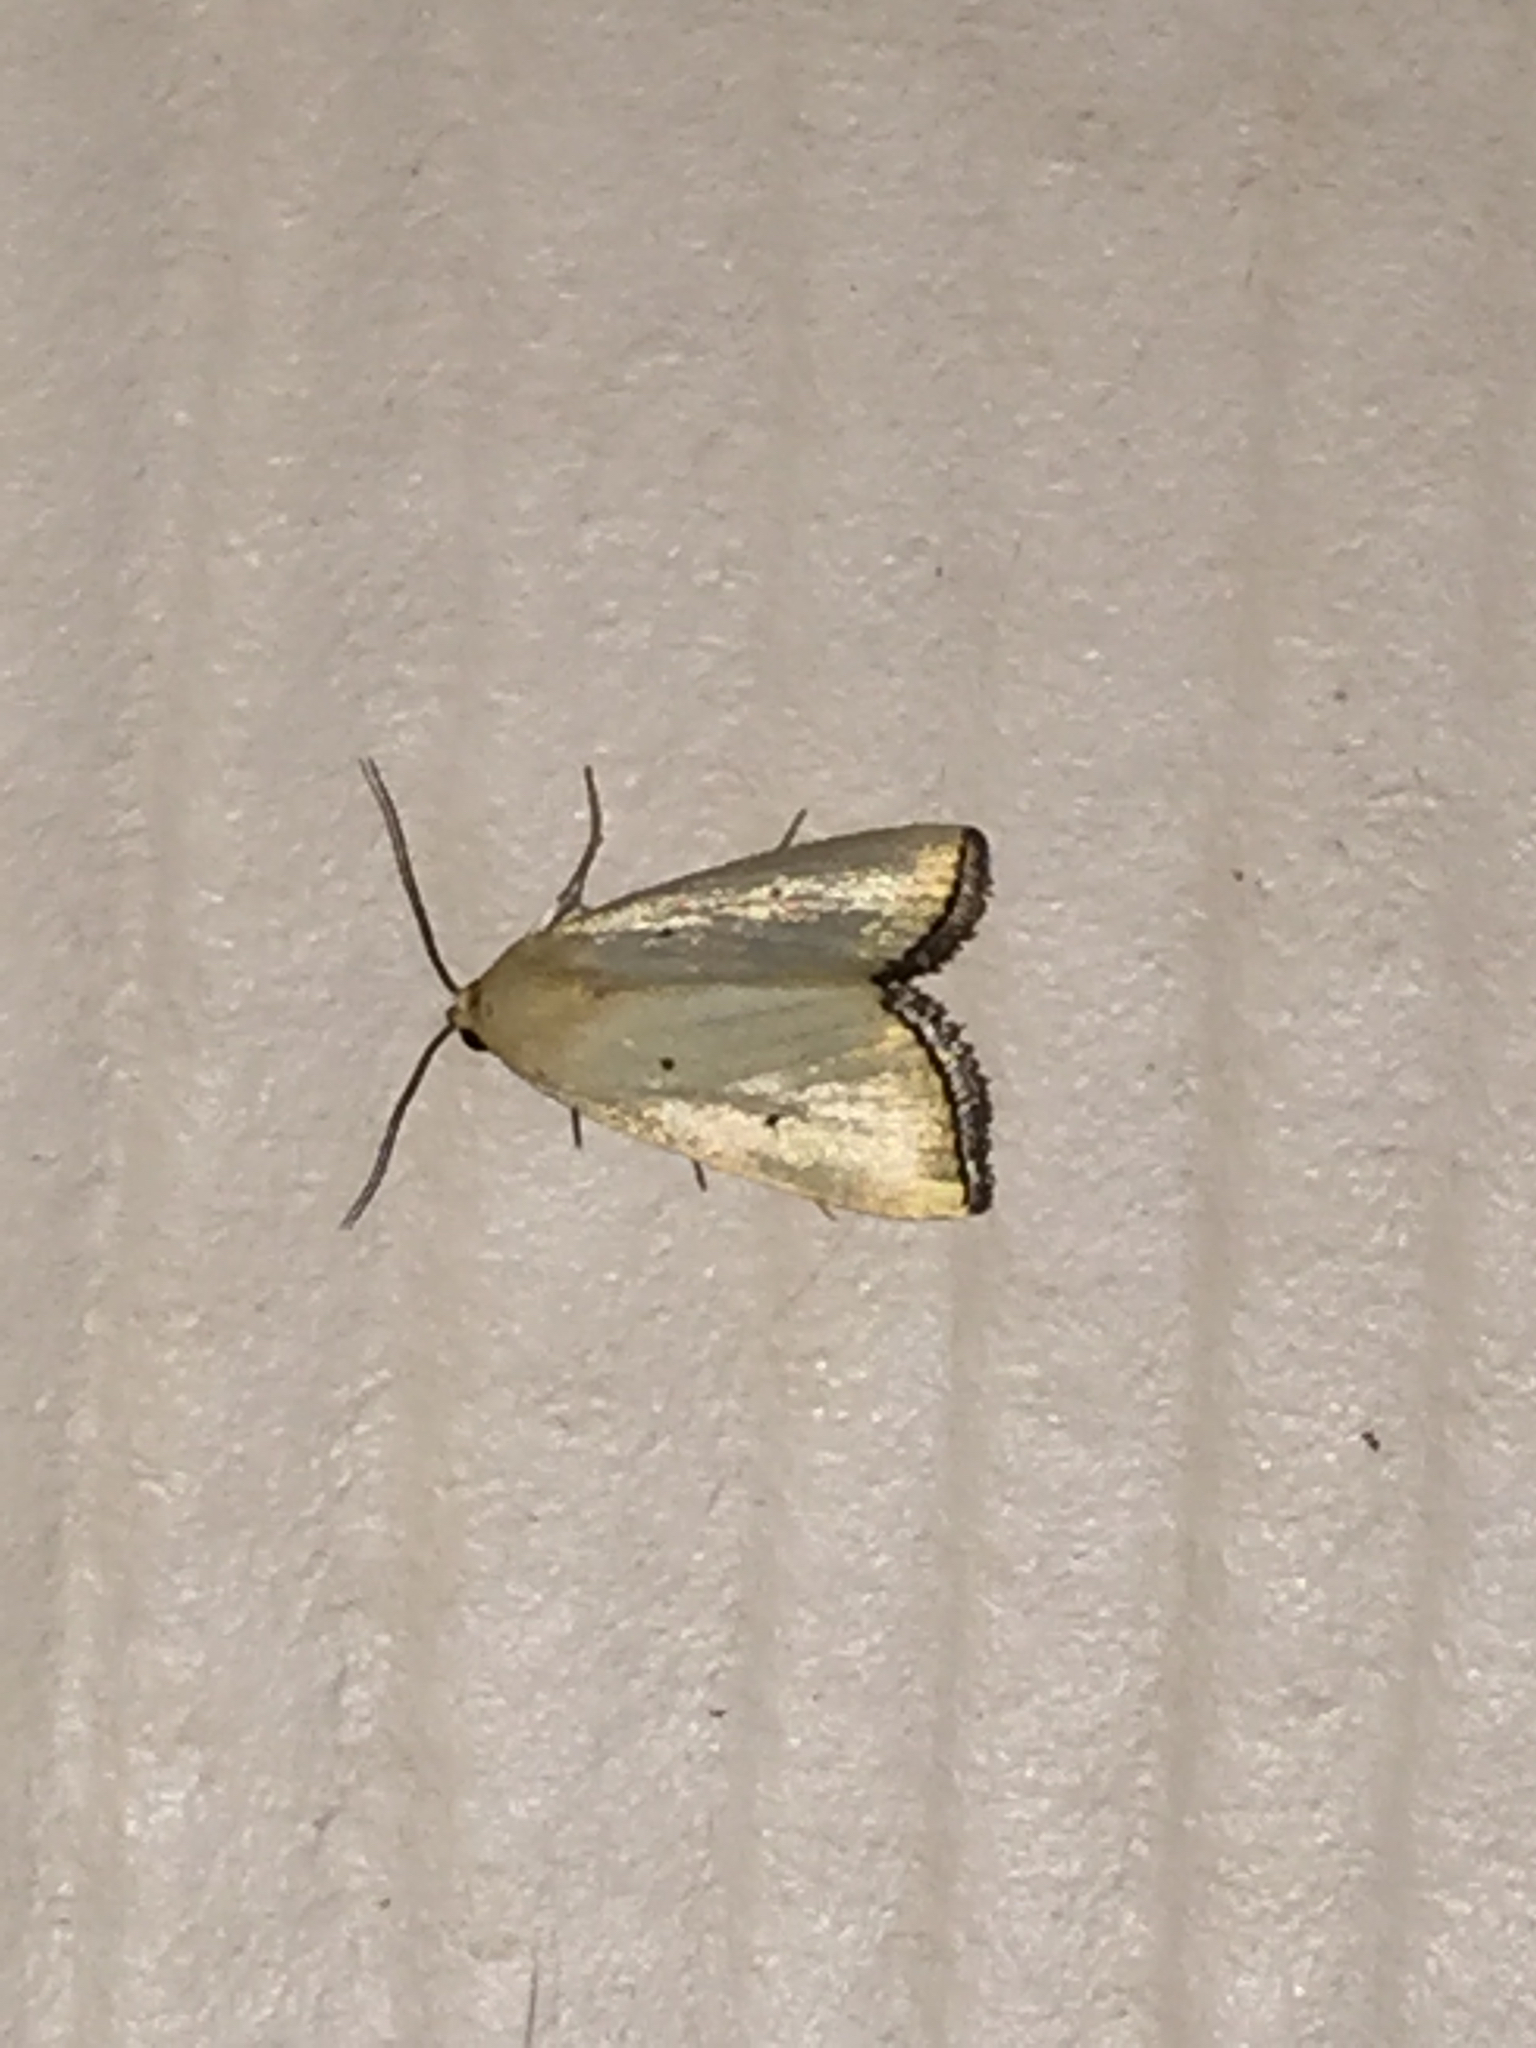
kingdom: Animalia
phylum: Arthropoda
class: Insecta
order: Lepidoptera
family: Noctuidae
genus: Marimatha
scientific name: Marimatha nigrofimbria
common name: Black-bordered lemon moth
